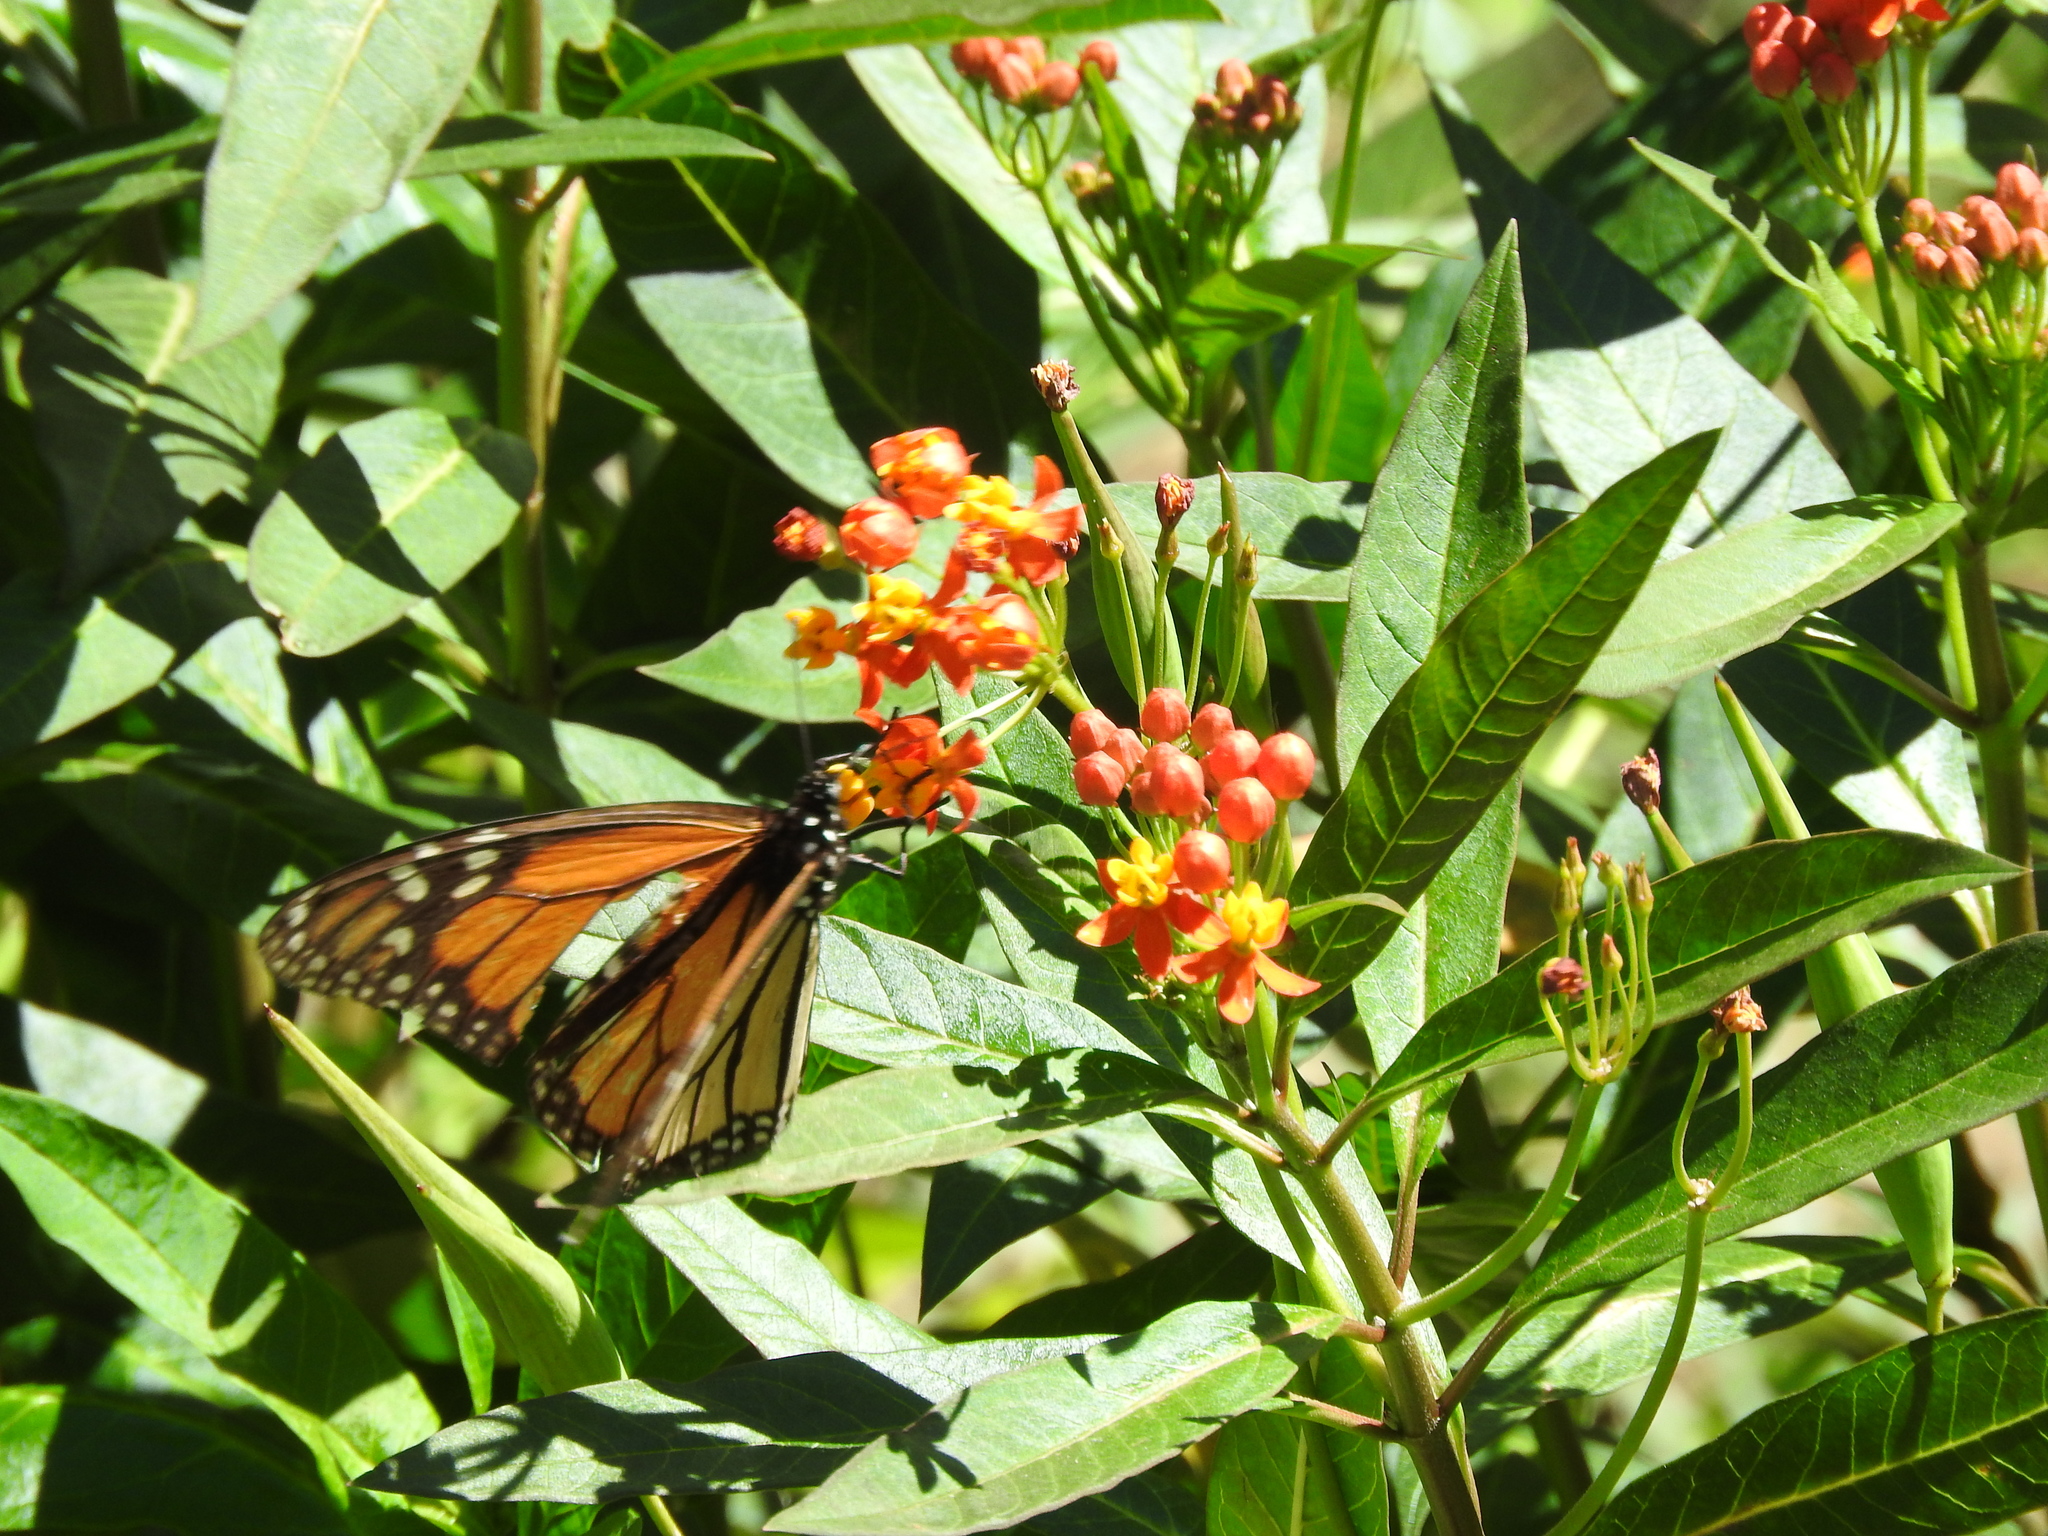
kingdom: Animalia
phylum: Arthropoda
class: Insecta
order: Lepidoptera
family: Nymphalidae
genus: Danaus
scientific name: Danaus plexippus
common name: Monarch
